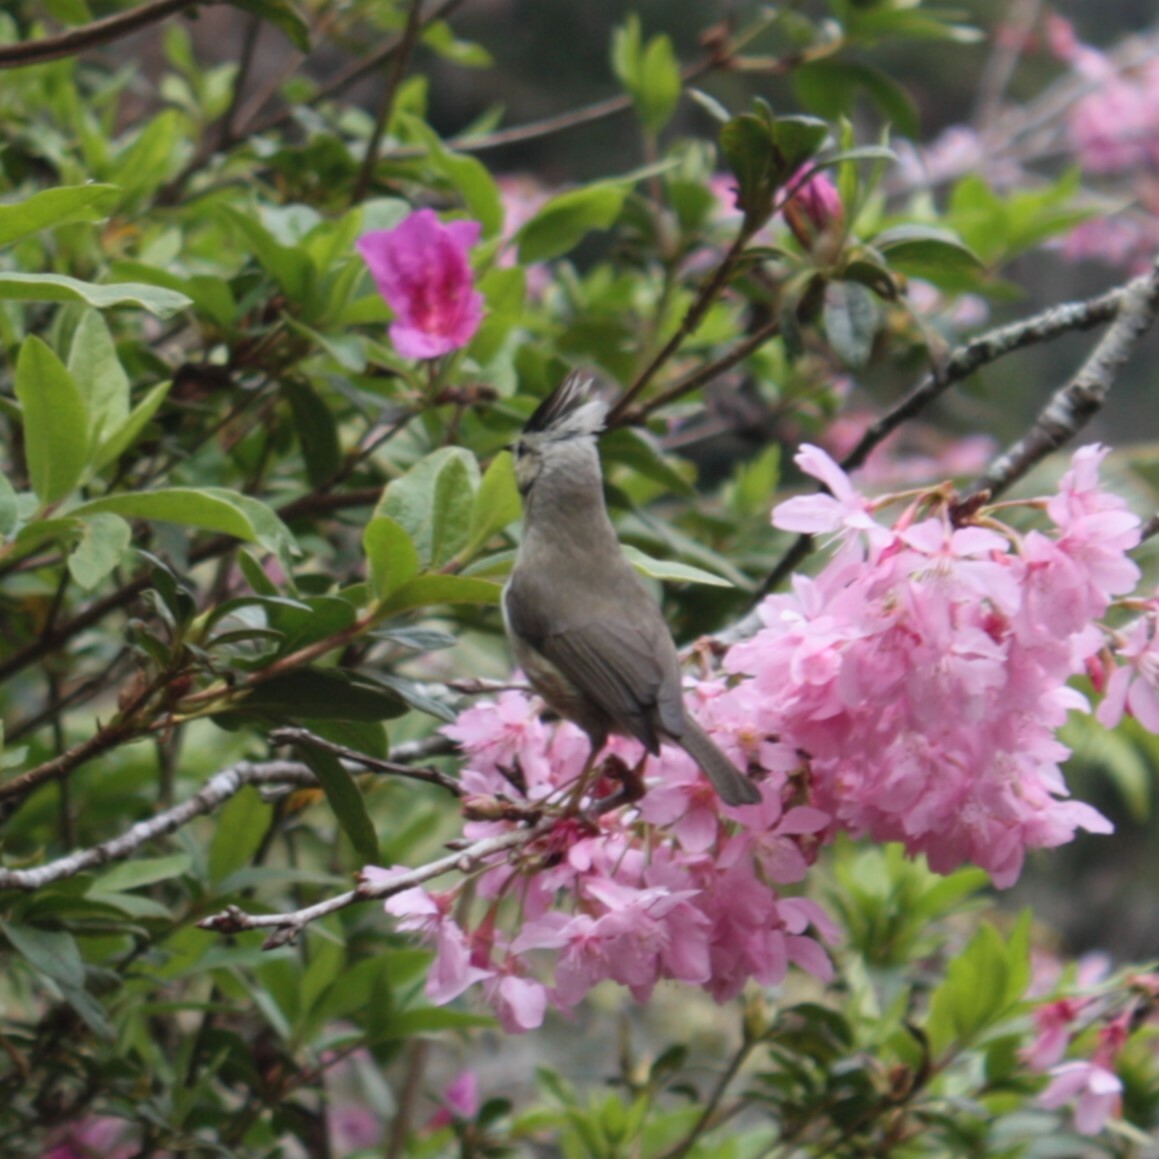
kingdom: Animalia
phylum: Chordata
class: Aves
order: Passeriformes
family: Zosteropidae
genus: Yuhina
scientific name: Yuhina brunneiceps
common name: Taiwan yuhina
